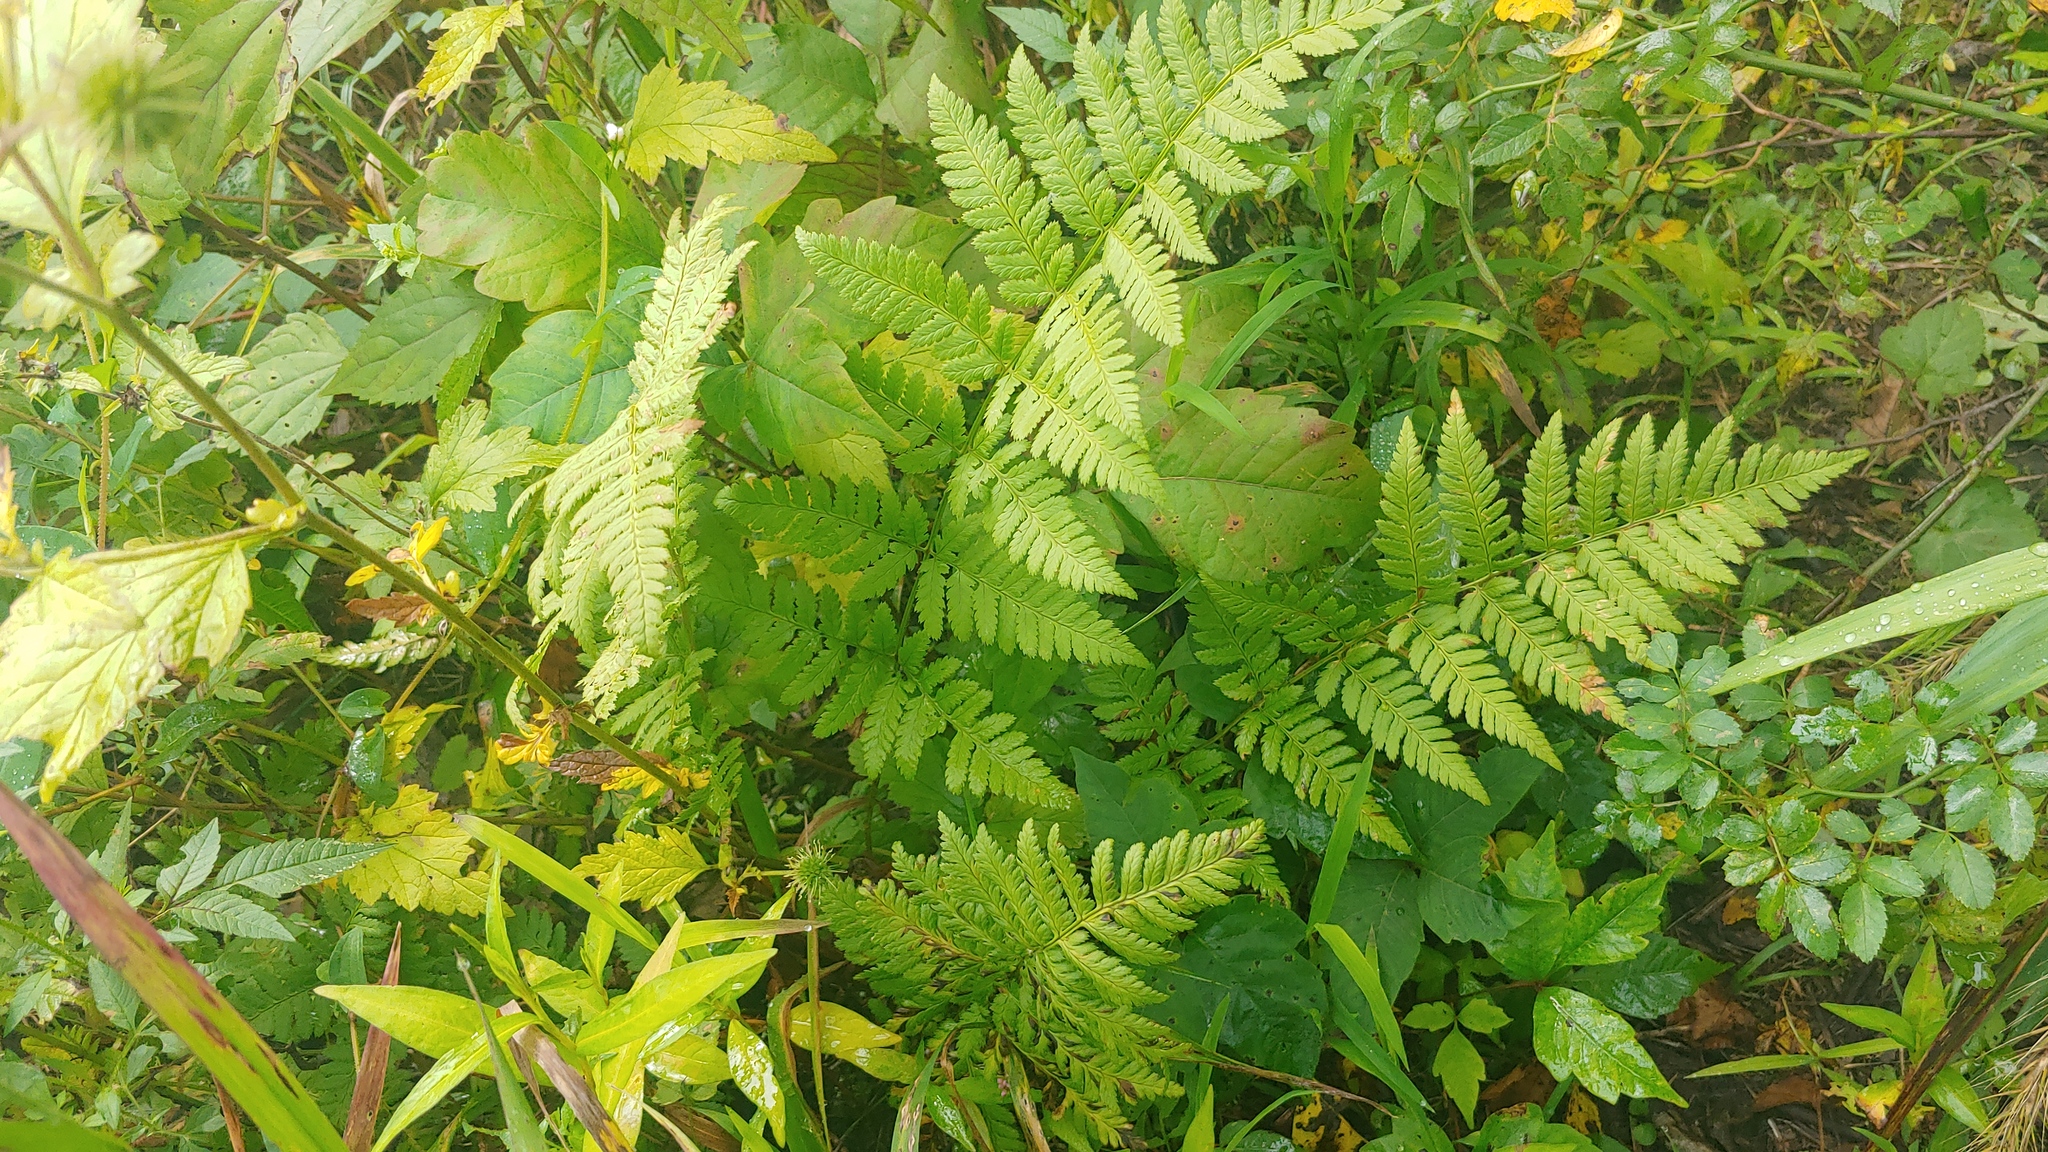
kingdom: Plantae
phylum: Tracheophyta
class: Polypodiopsida
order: Polypodiales
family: Dryopteridaceae
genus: Dryopteris
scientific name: Dryopteris carthusiana
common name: Narrow buckler-fern
